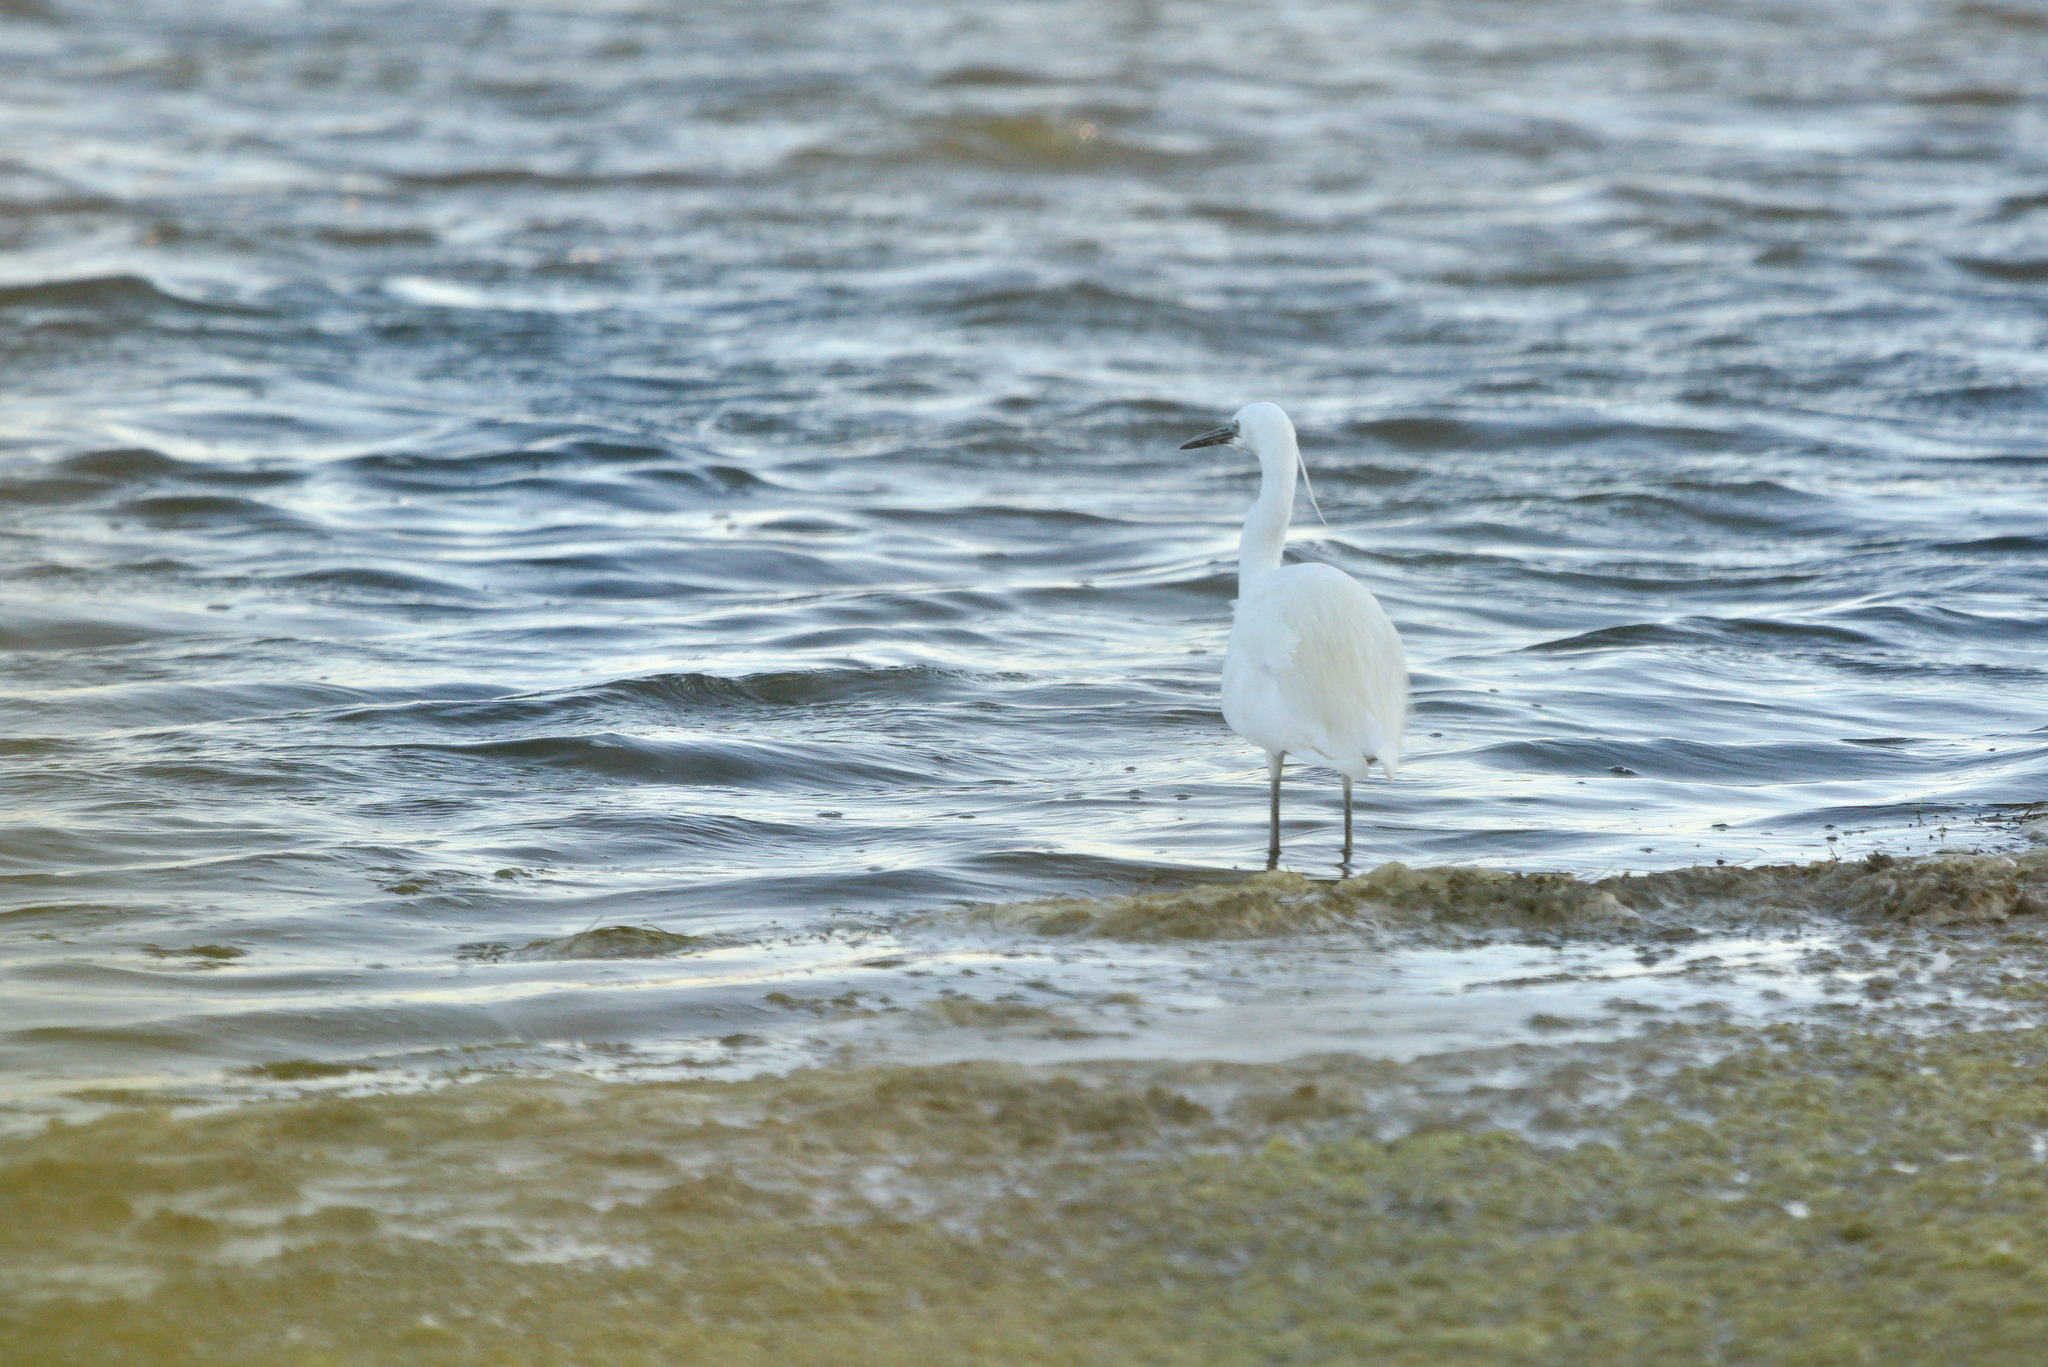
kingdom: Animalia
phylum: Chordata
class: Aves
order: Pelecaniformes
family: Ardeidae
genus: Egretta
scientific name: Egretta garzetta
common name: Little egret
